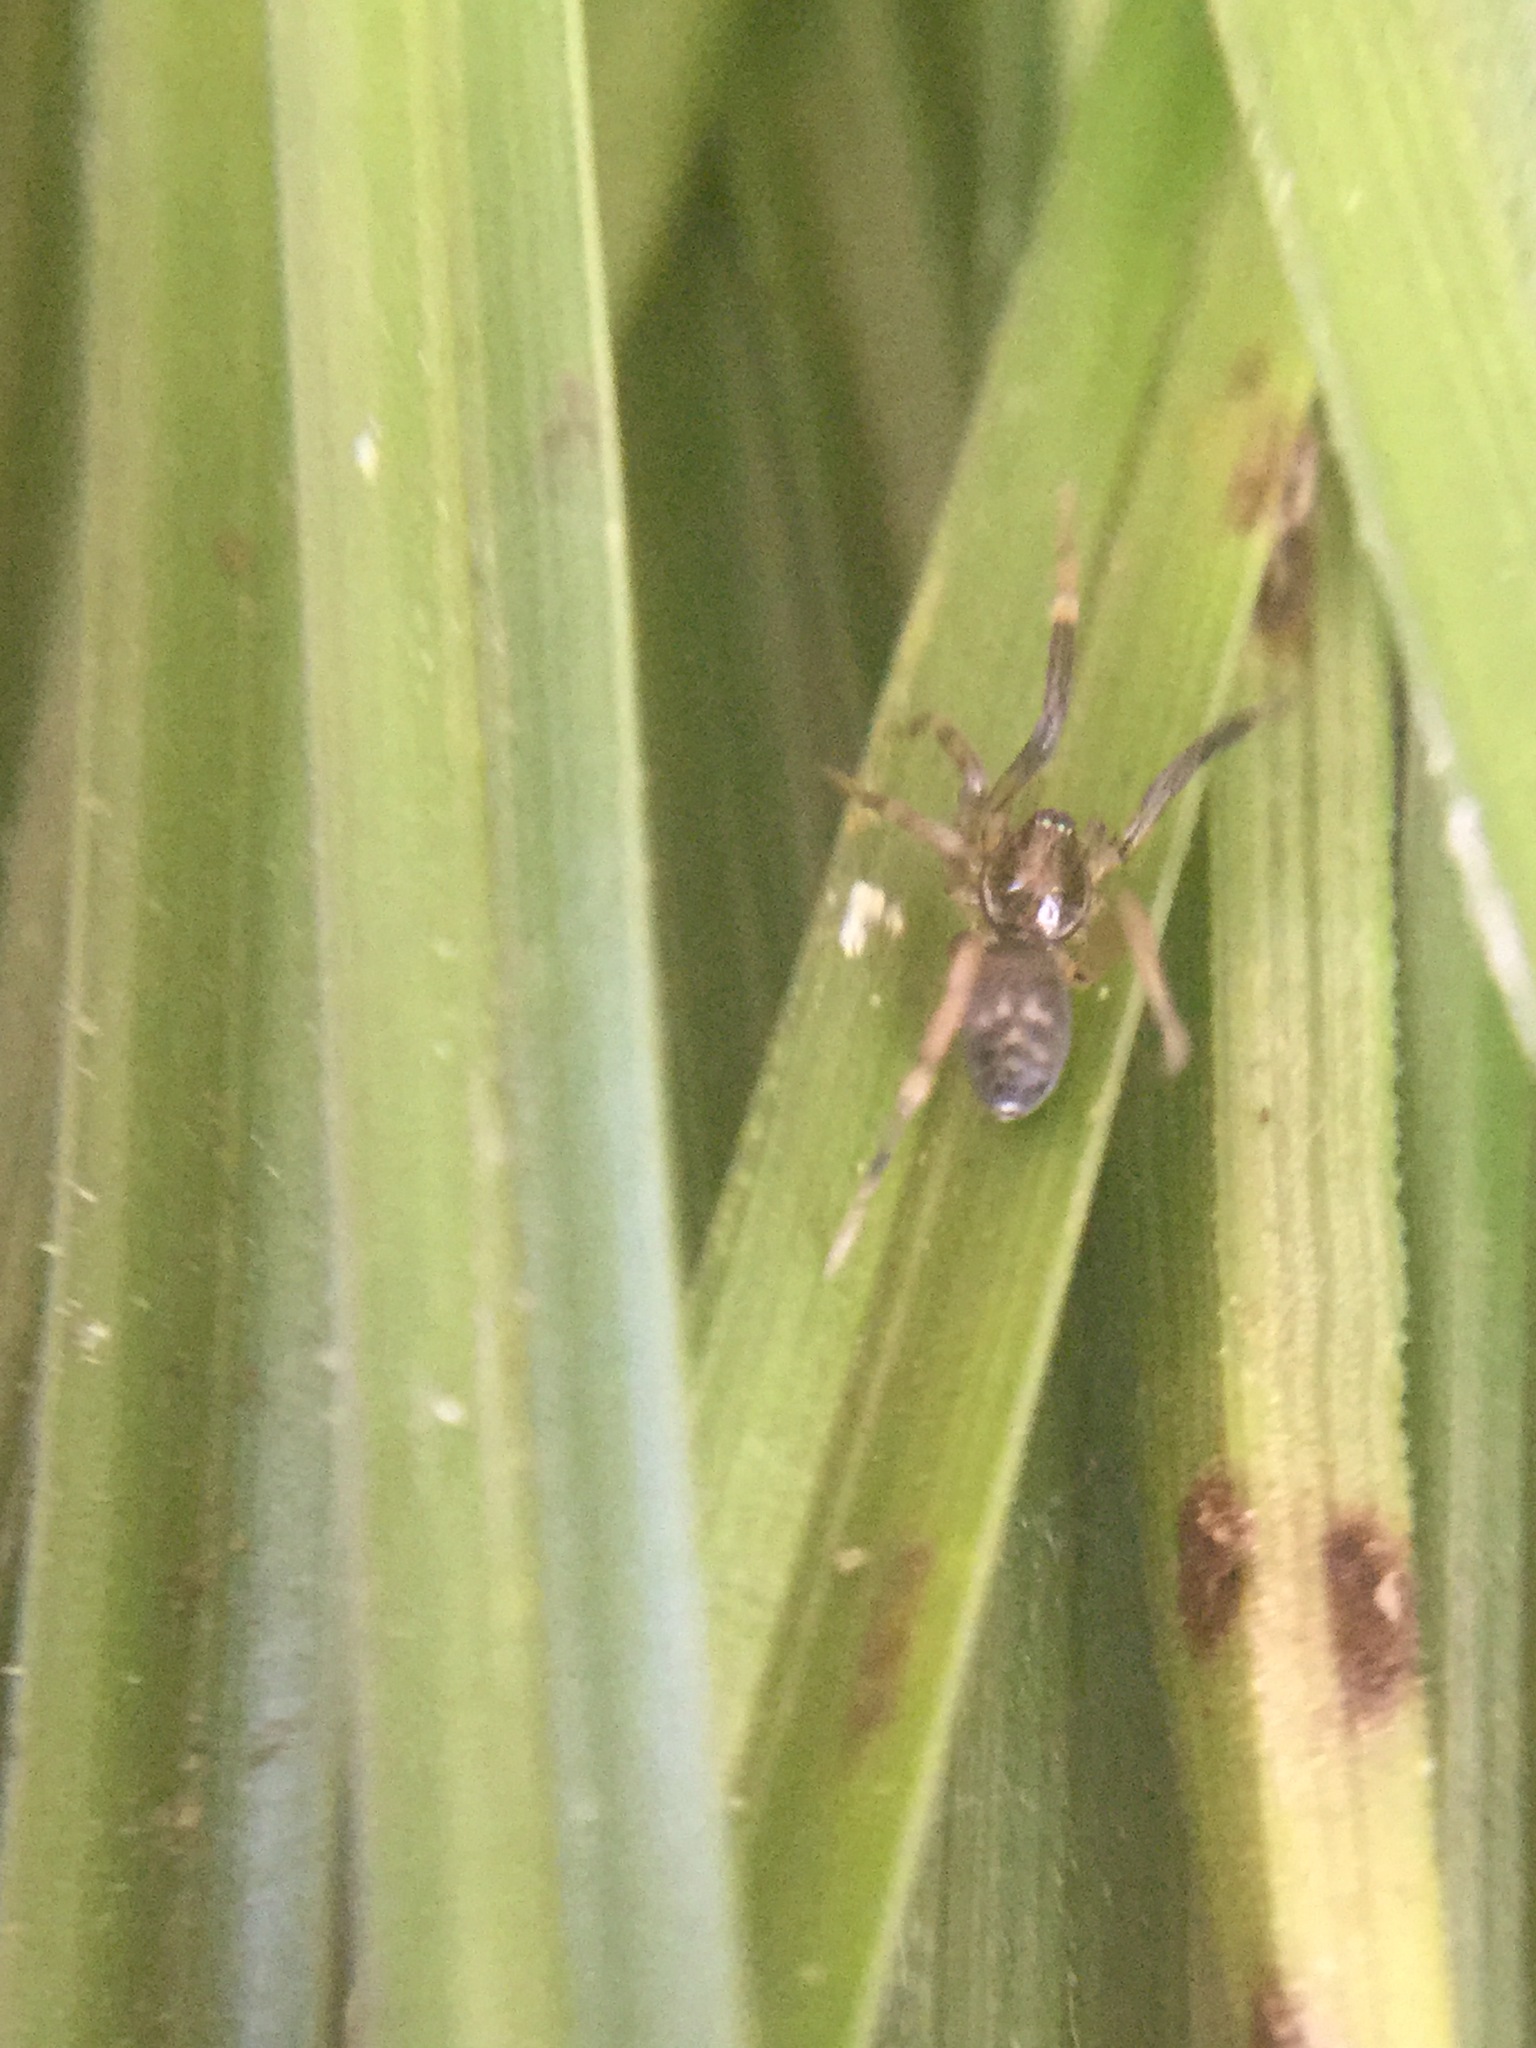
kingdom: Animalia
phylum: Arthropoda
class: Arachnida
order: Araneae
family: Phrurolithidae
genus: Phrurotimpus
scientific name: Phrurotimpus borealis
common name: Greater ant-mimic corinne spider
